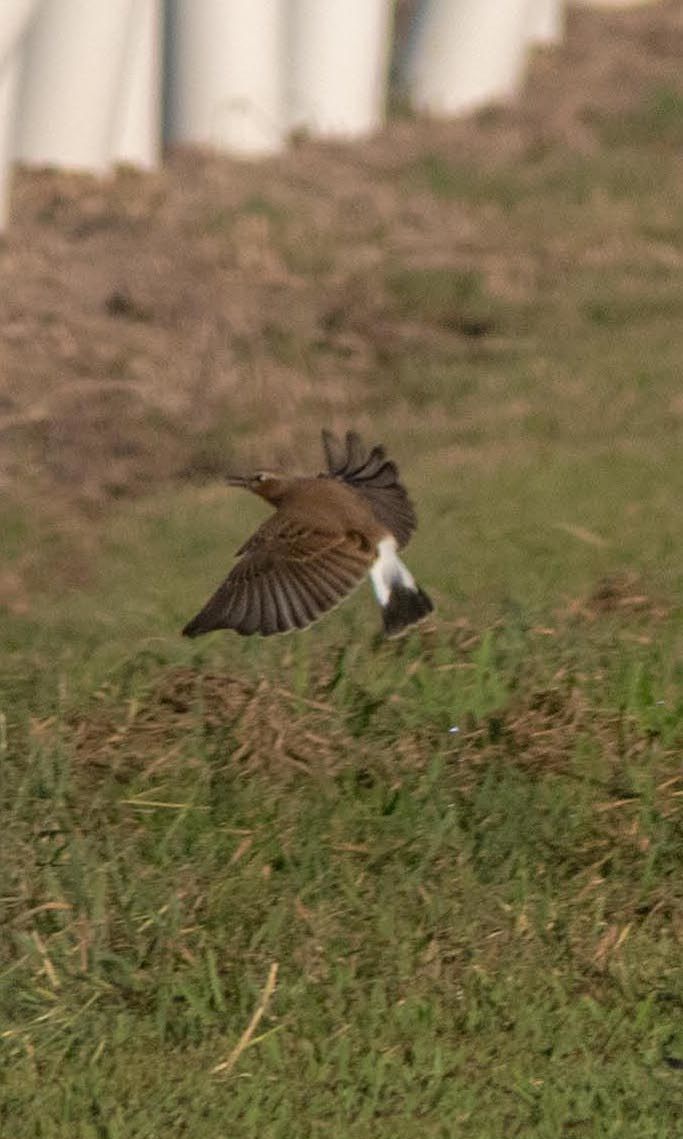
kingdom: Animalia
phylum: Chordata
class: Aves
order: Passeriformes
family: Muscicapidae
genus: Oenanthe
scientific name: Oenanthe oenanthe
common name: Northern wheatear
